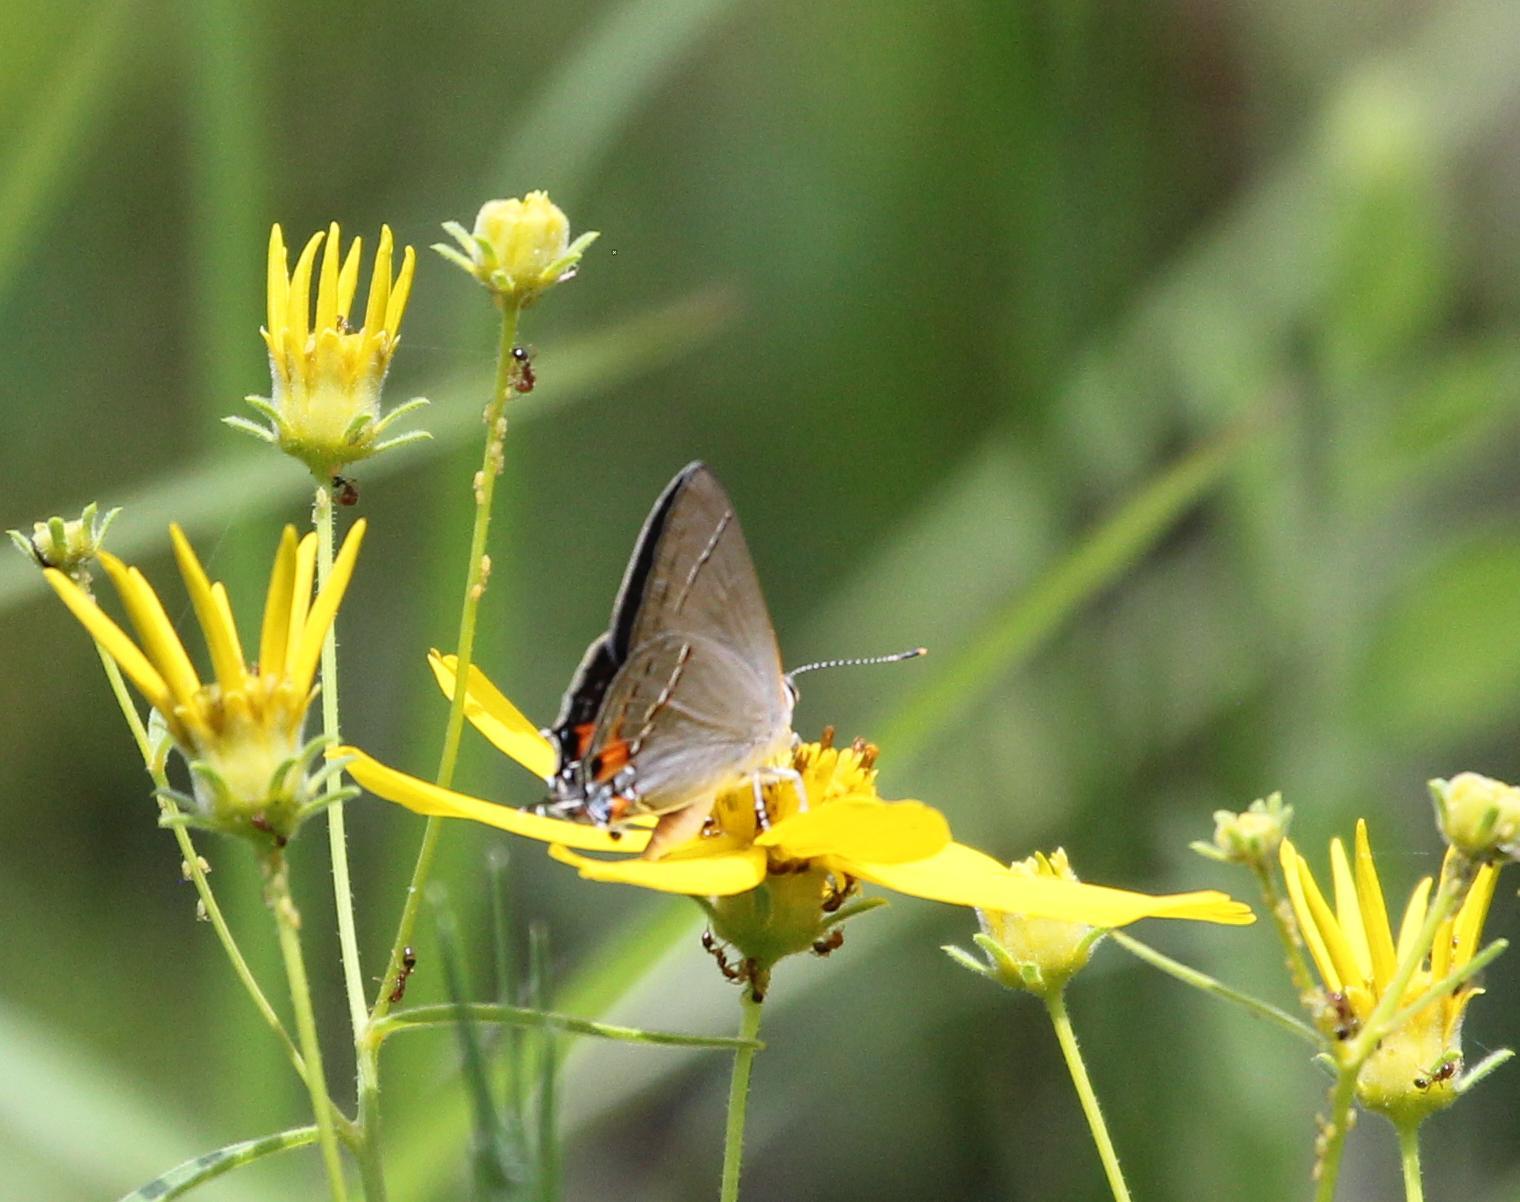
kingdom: Animalia
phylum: Arthropoda
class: Insecta
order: Lepidoptera
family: Lycaenidae
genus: Strymon
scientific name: Strymon melinus
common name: Gray hairstreak
